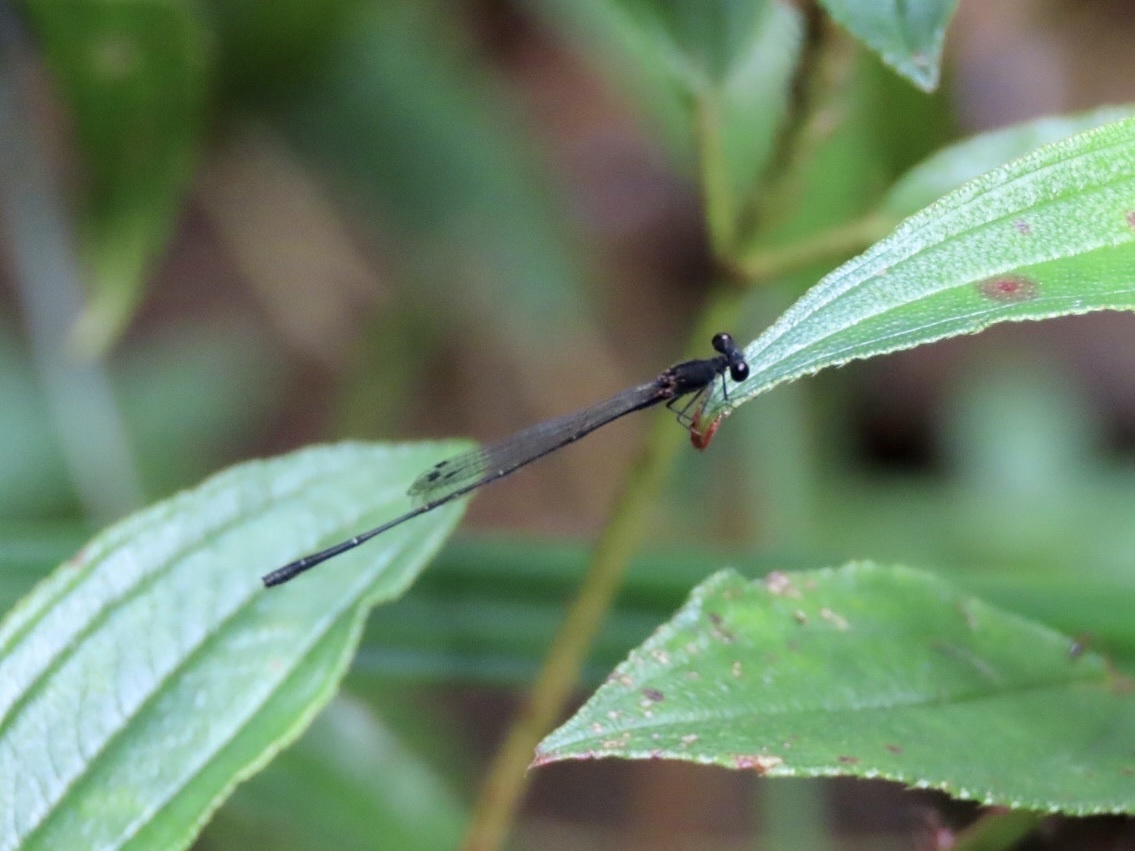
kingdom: Animalia
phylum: Arthropoda
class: Insecta
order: Odonata
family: Platycnemididae
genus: Prodasineura
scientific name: Prodasineura autumnalis
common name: Black threadtail
